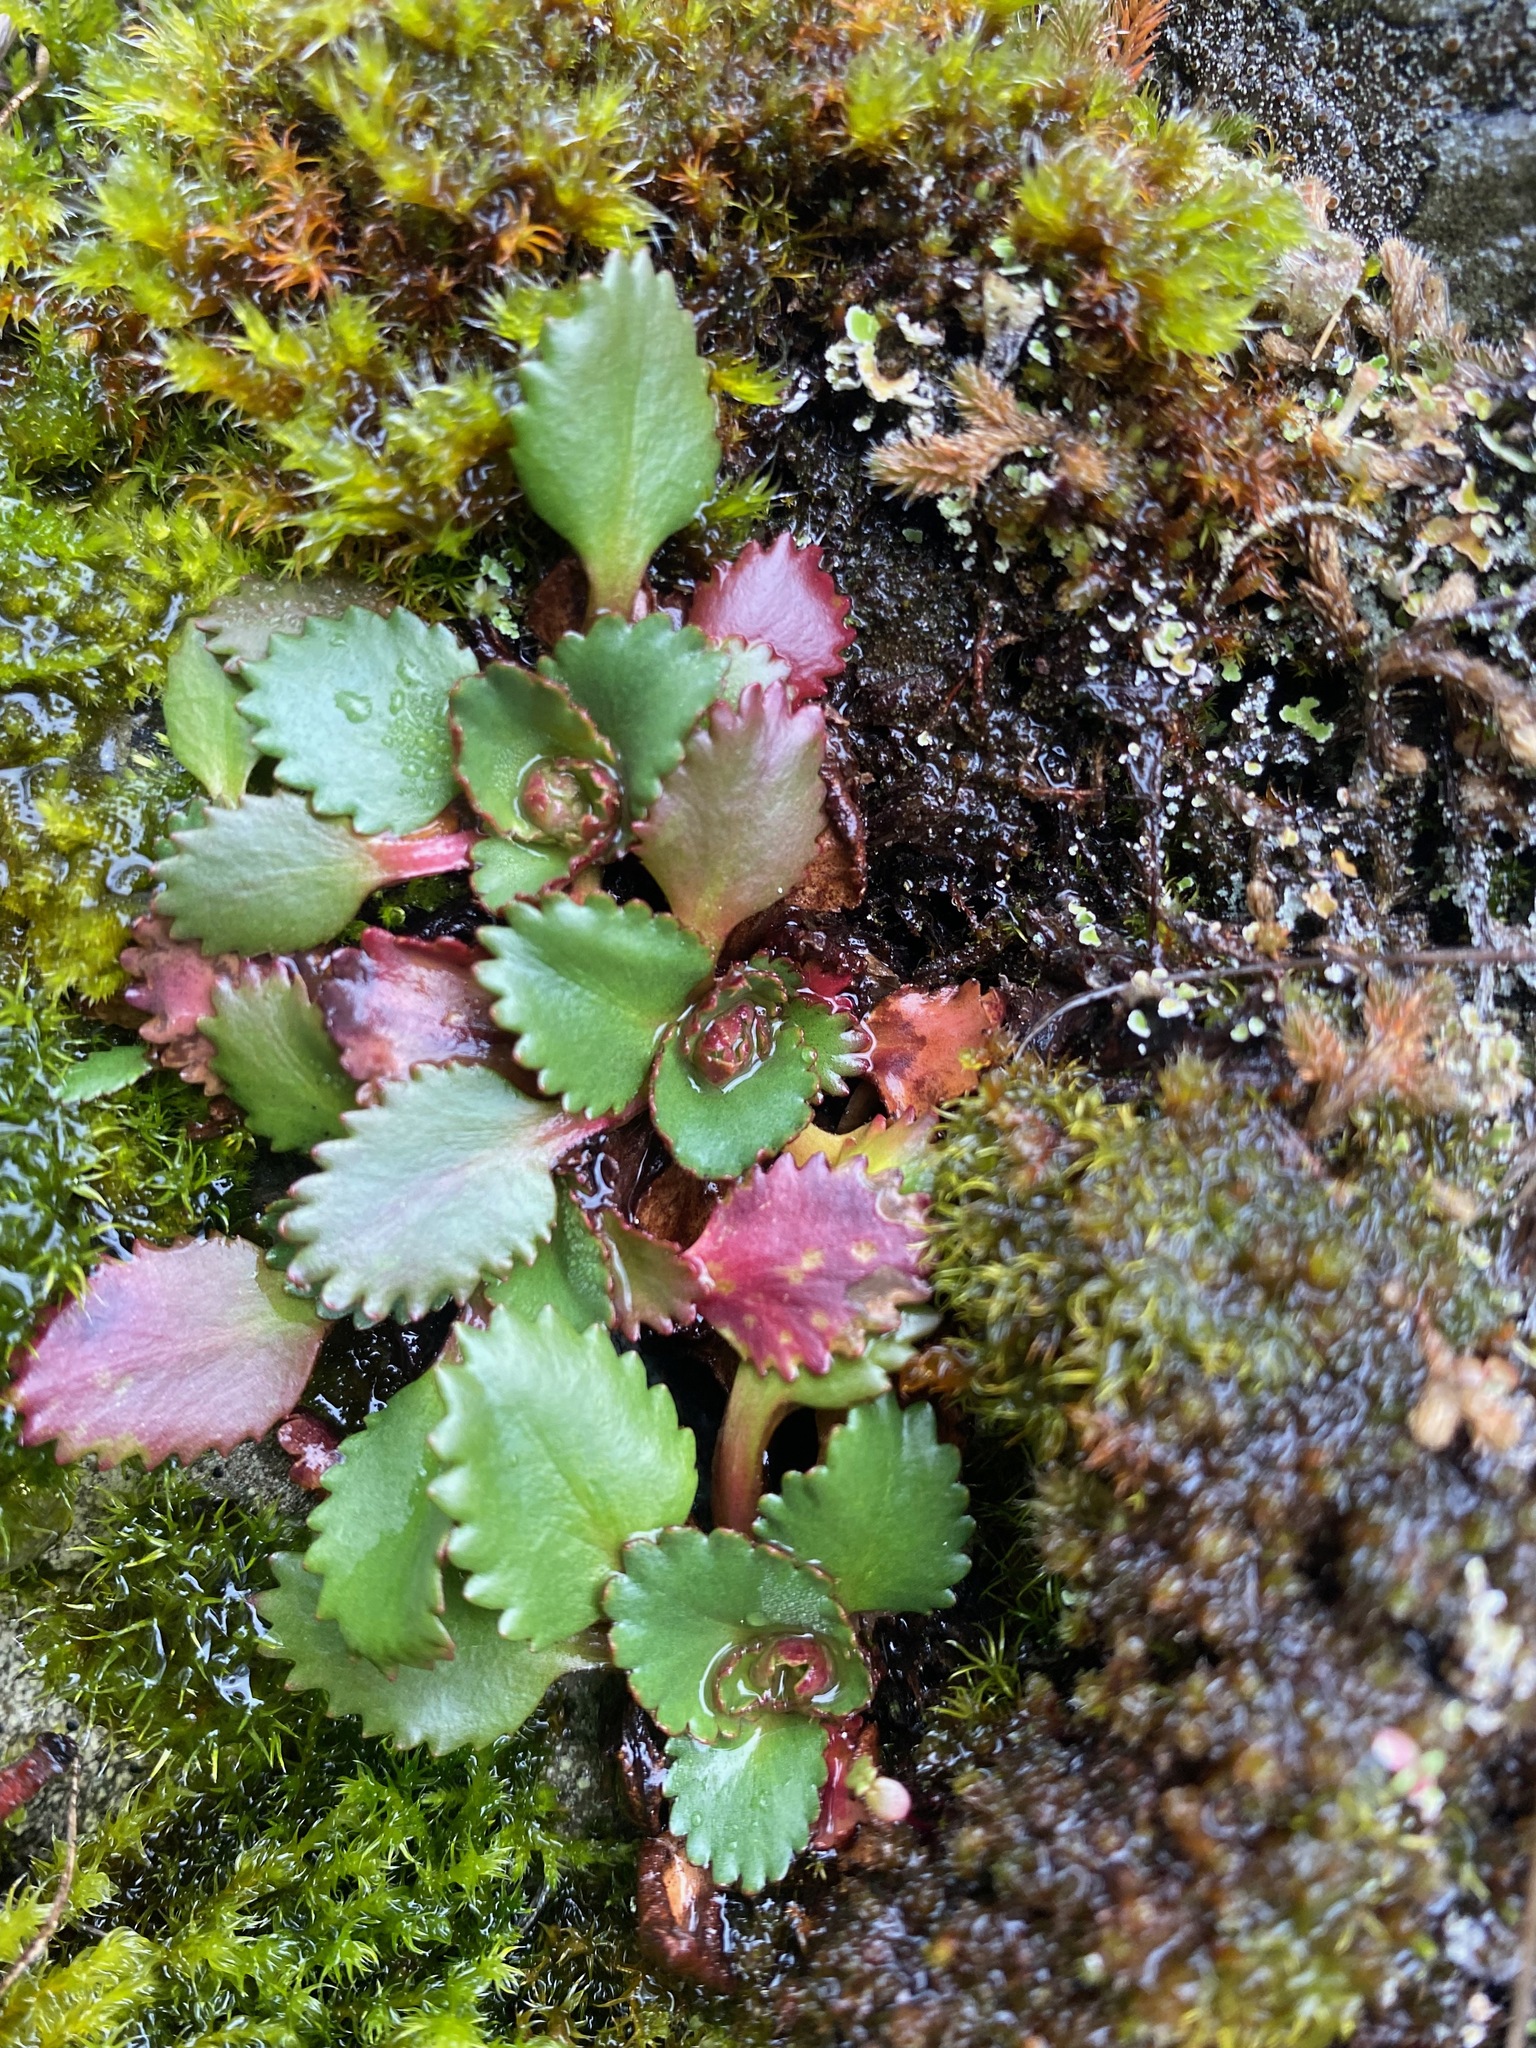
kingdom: Plantae
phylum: Tracheophyta
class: Magnoliopsida
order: Saxifragales
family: Saxifragaceae
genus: Micranthes
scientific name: Micranthes rufidula
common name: Rustyhair saxifrage
